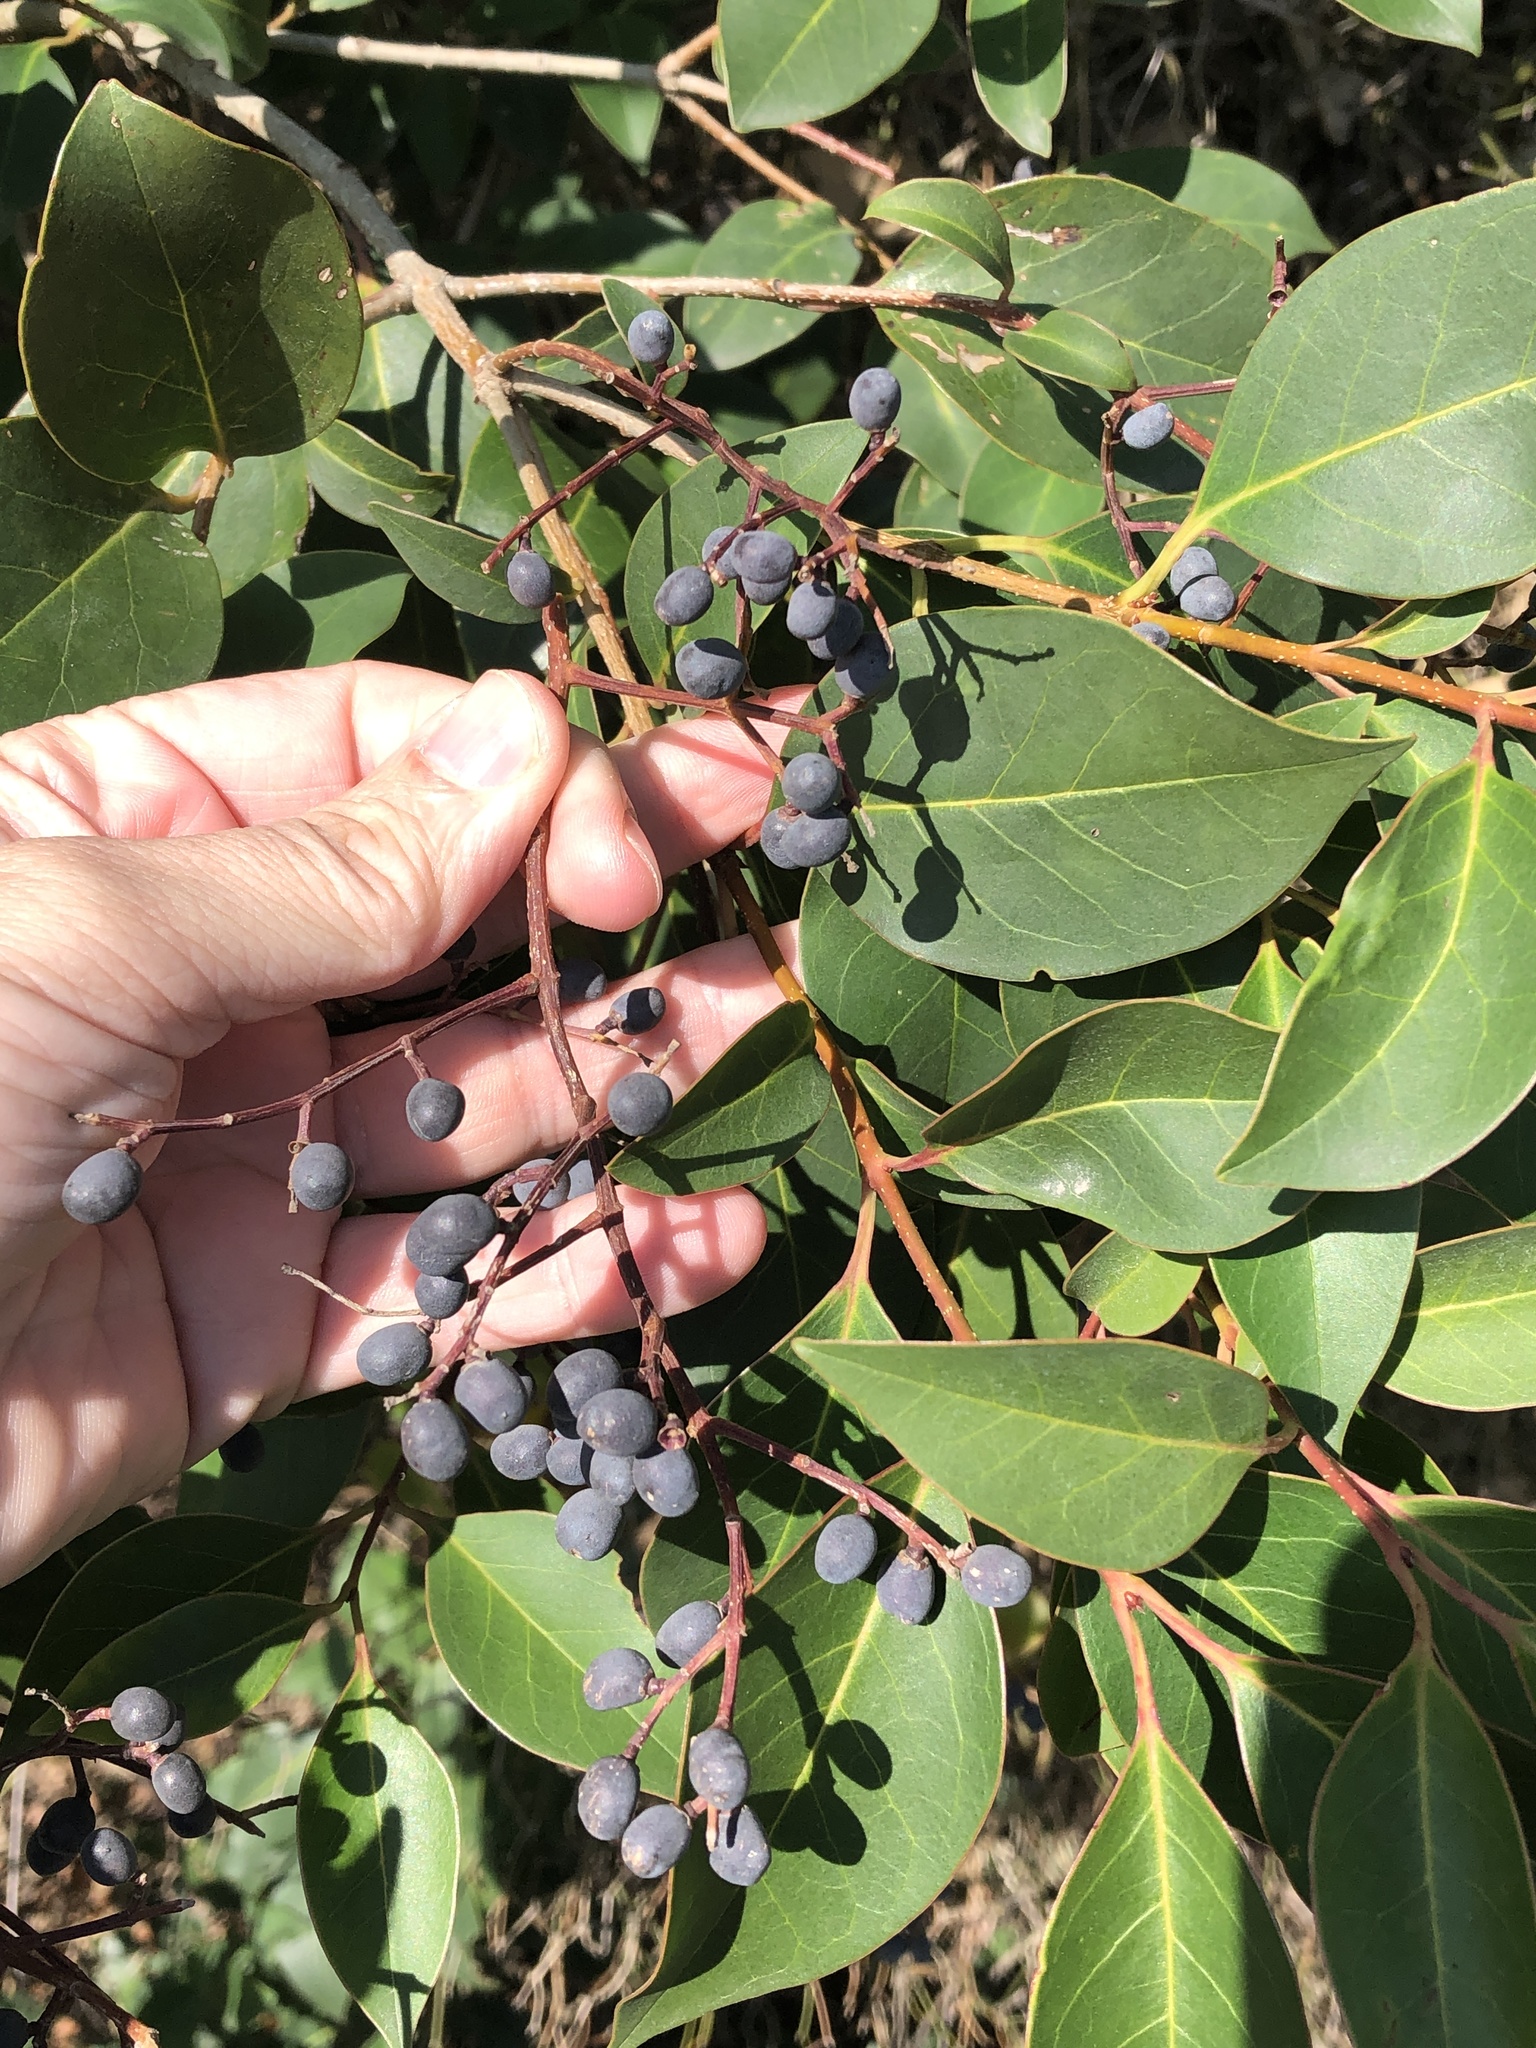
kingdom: Plantae
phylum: Tracheophyta
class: Magnoliopsida
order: Lamiales
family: Oleaceae
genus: Ligustrum
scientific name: Ligustrum lucidum
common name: Glossy privet
